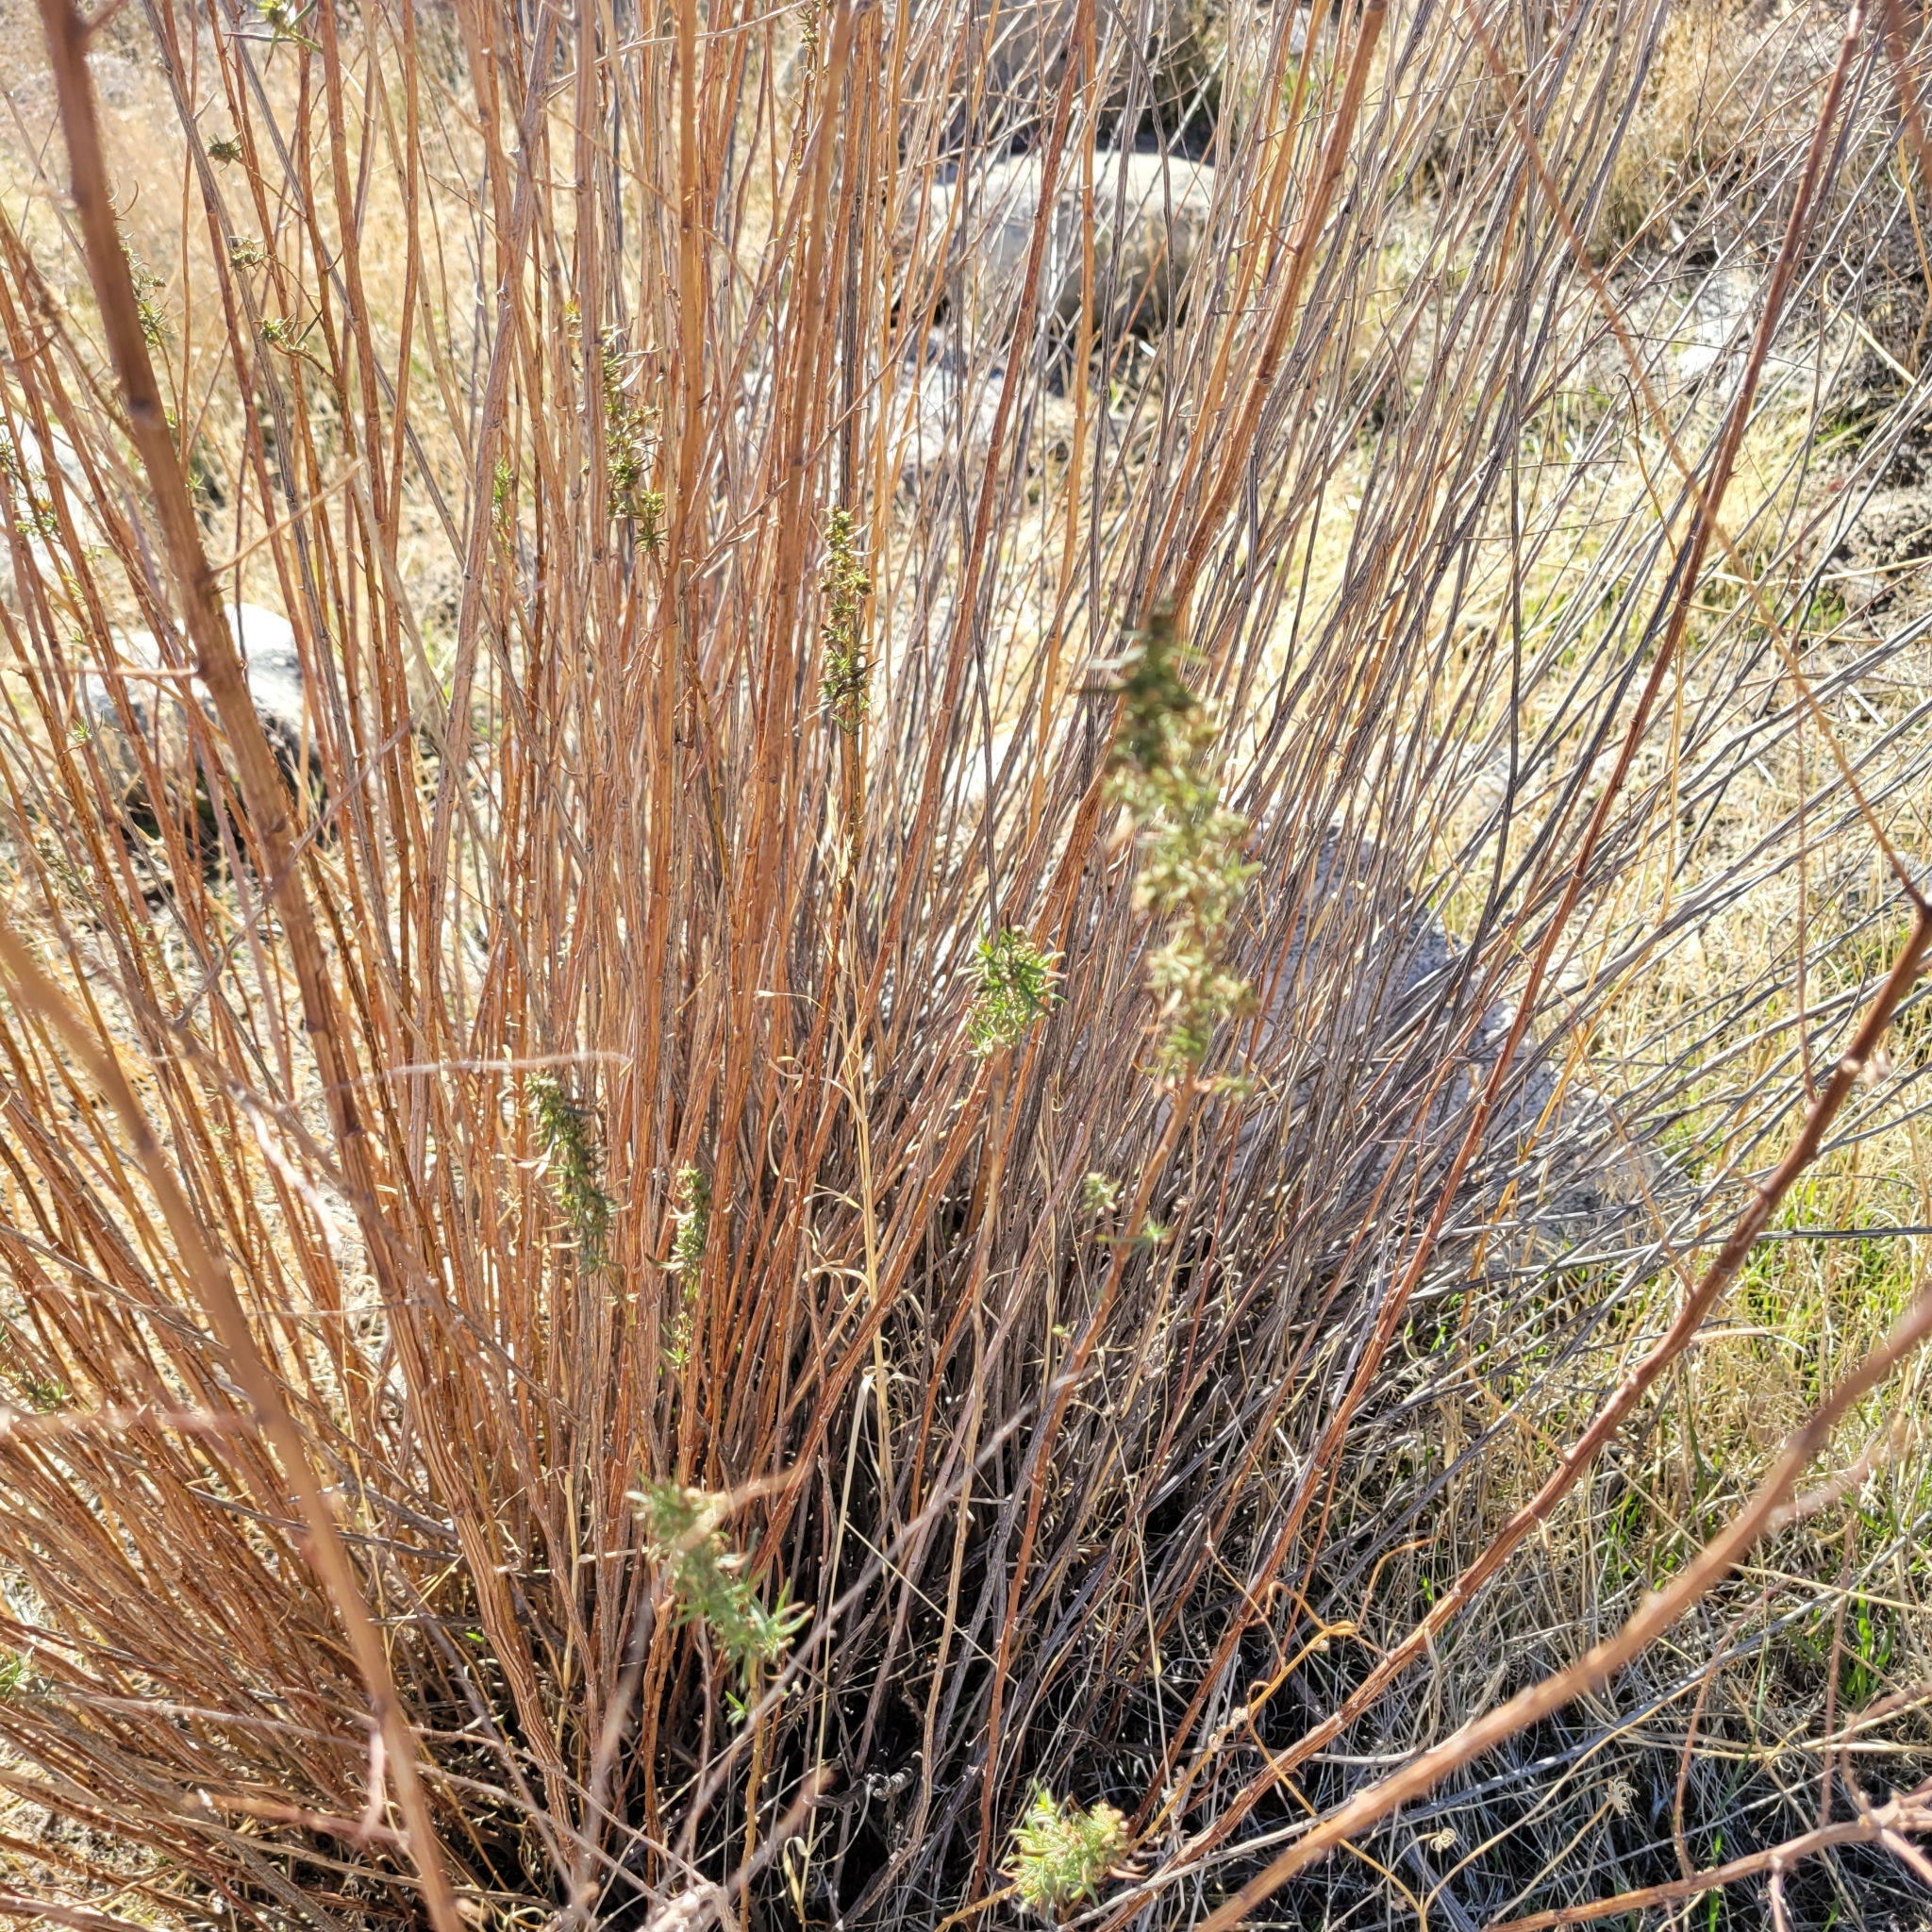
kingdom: Plantae
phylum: Tracheophyta
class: Magnoliopsida
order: Asterales
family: Asteraceae
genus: Artemisia
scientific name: Artemisia dracunculus
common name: Tarragon
